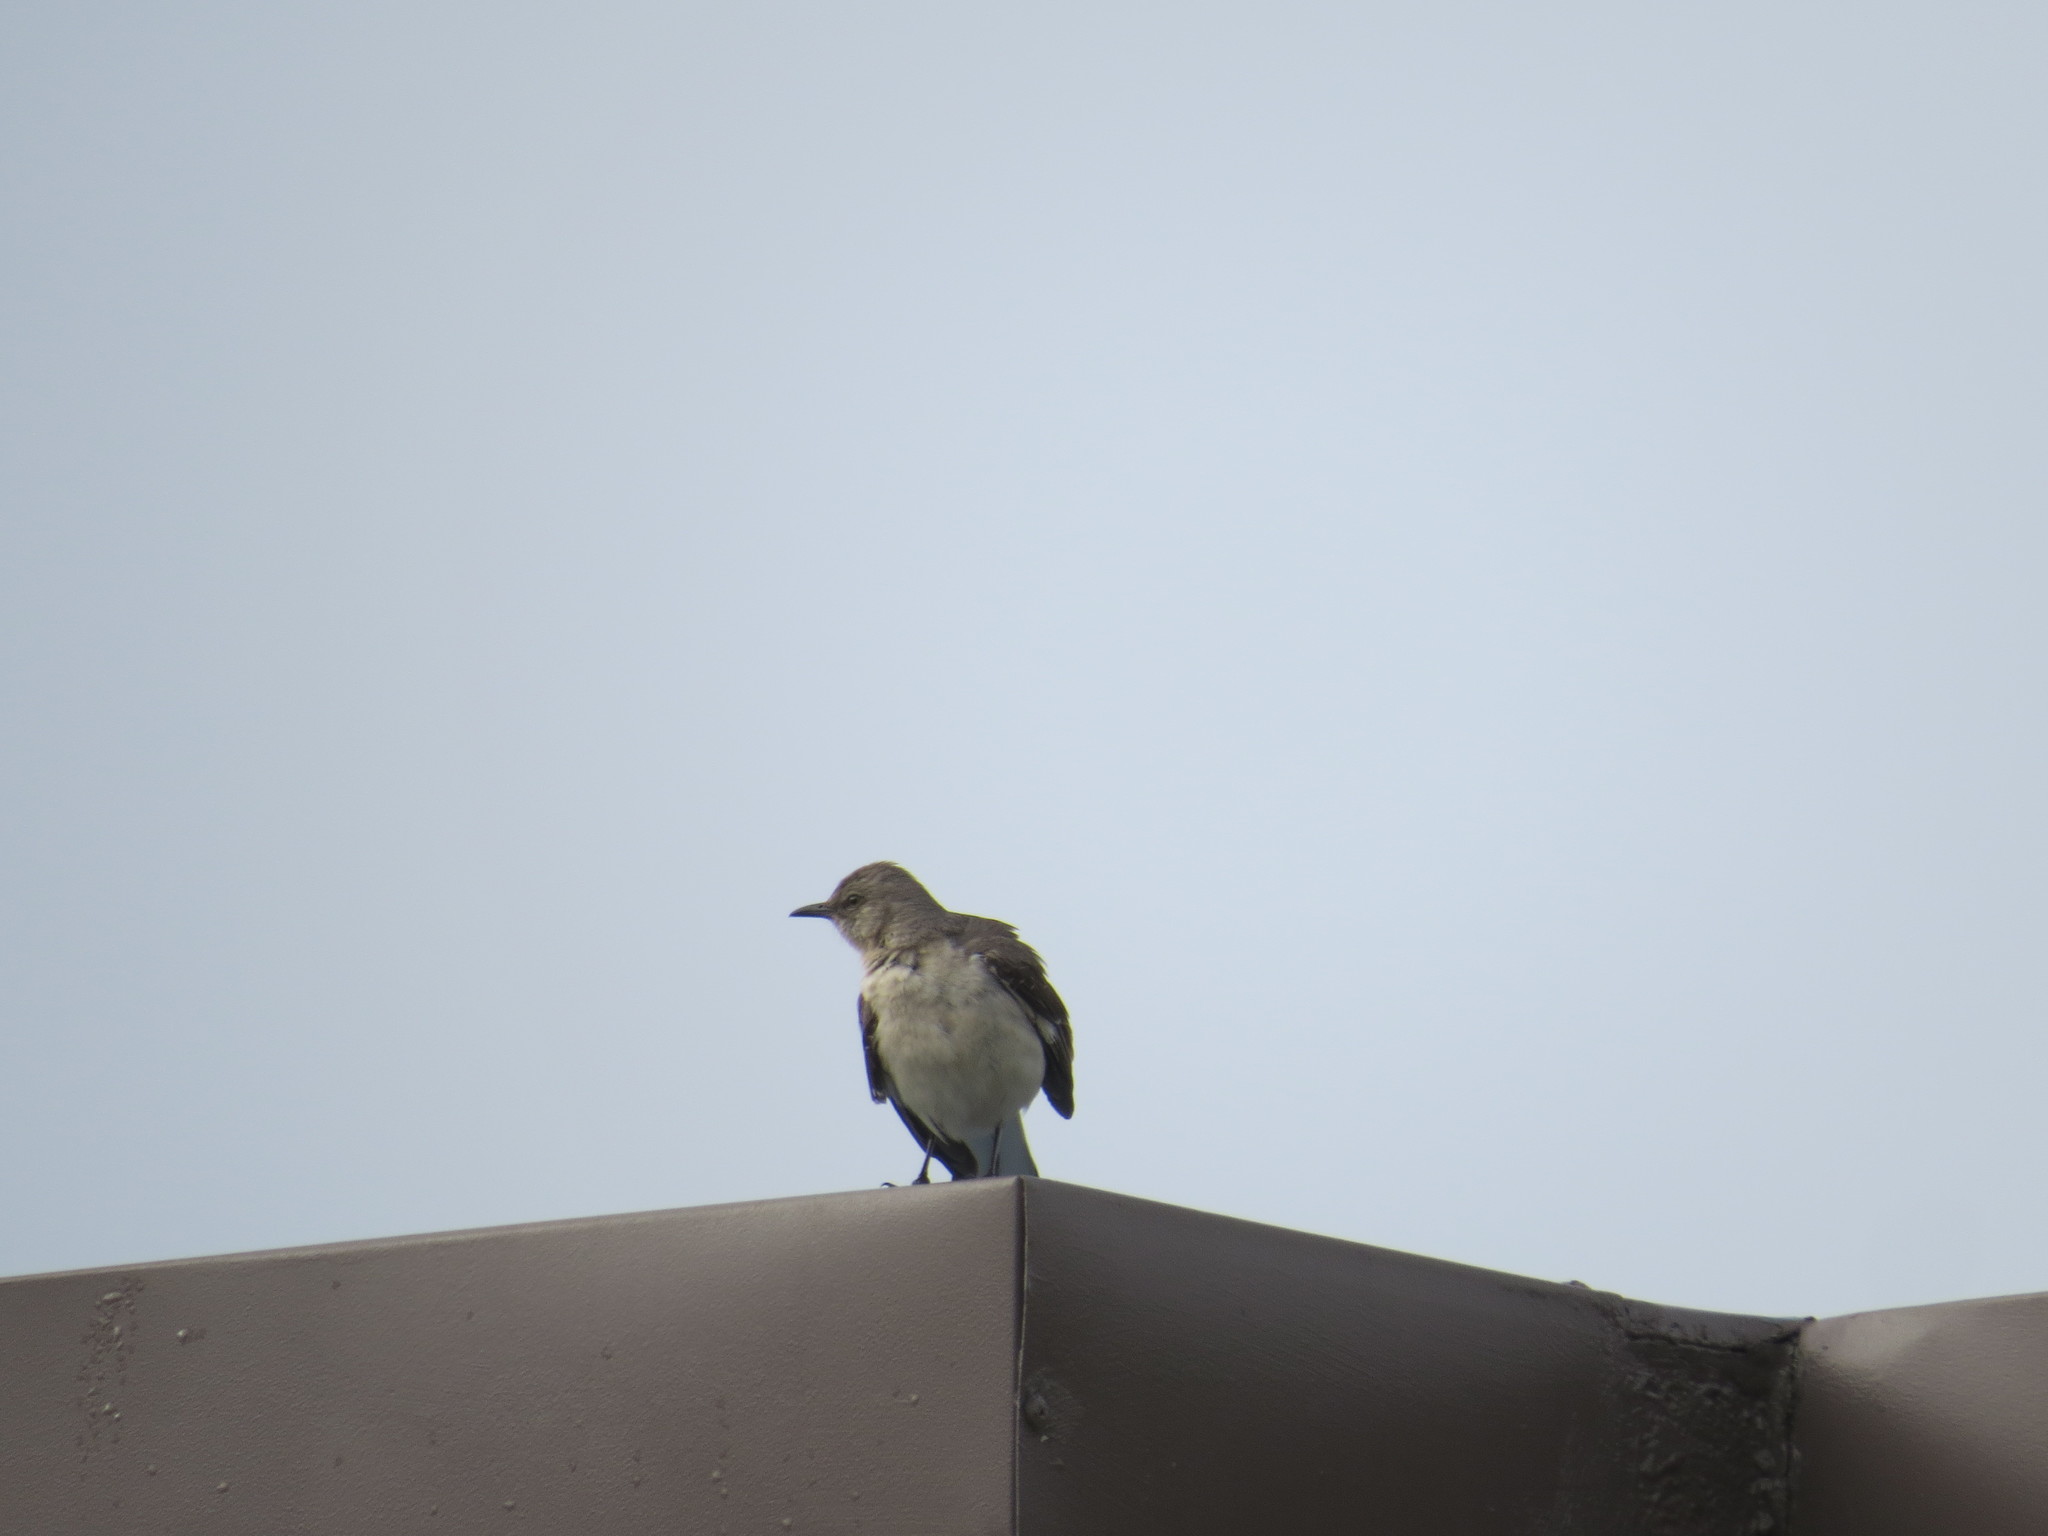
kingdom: Animalia
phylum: Chordata
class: Aves
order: Passeriformes
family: Mimidae
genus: Mimus
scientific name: Mimus polyglottos
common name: Northern mockingbird
